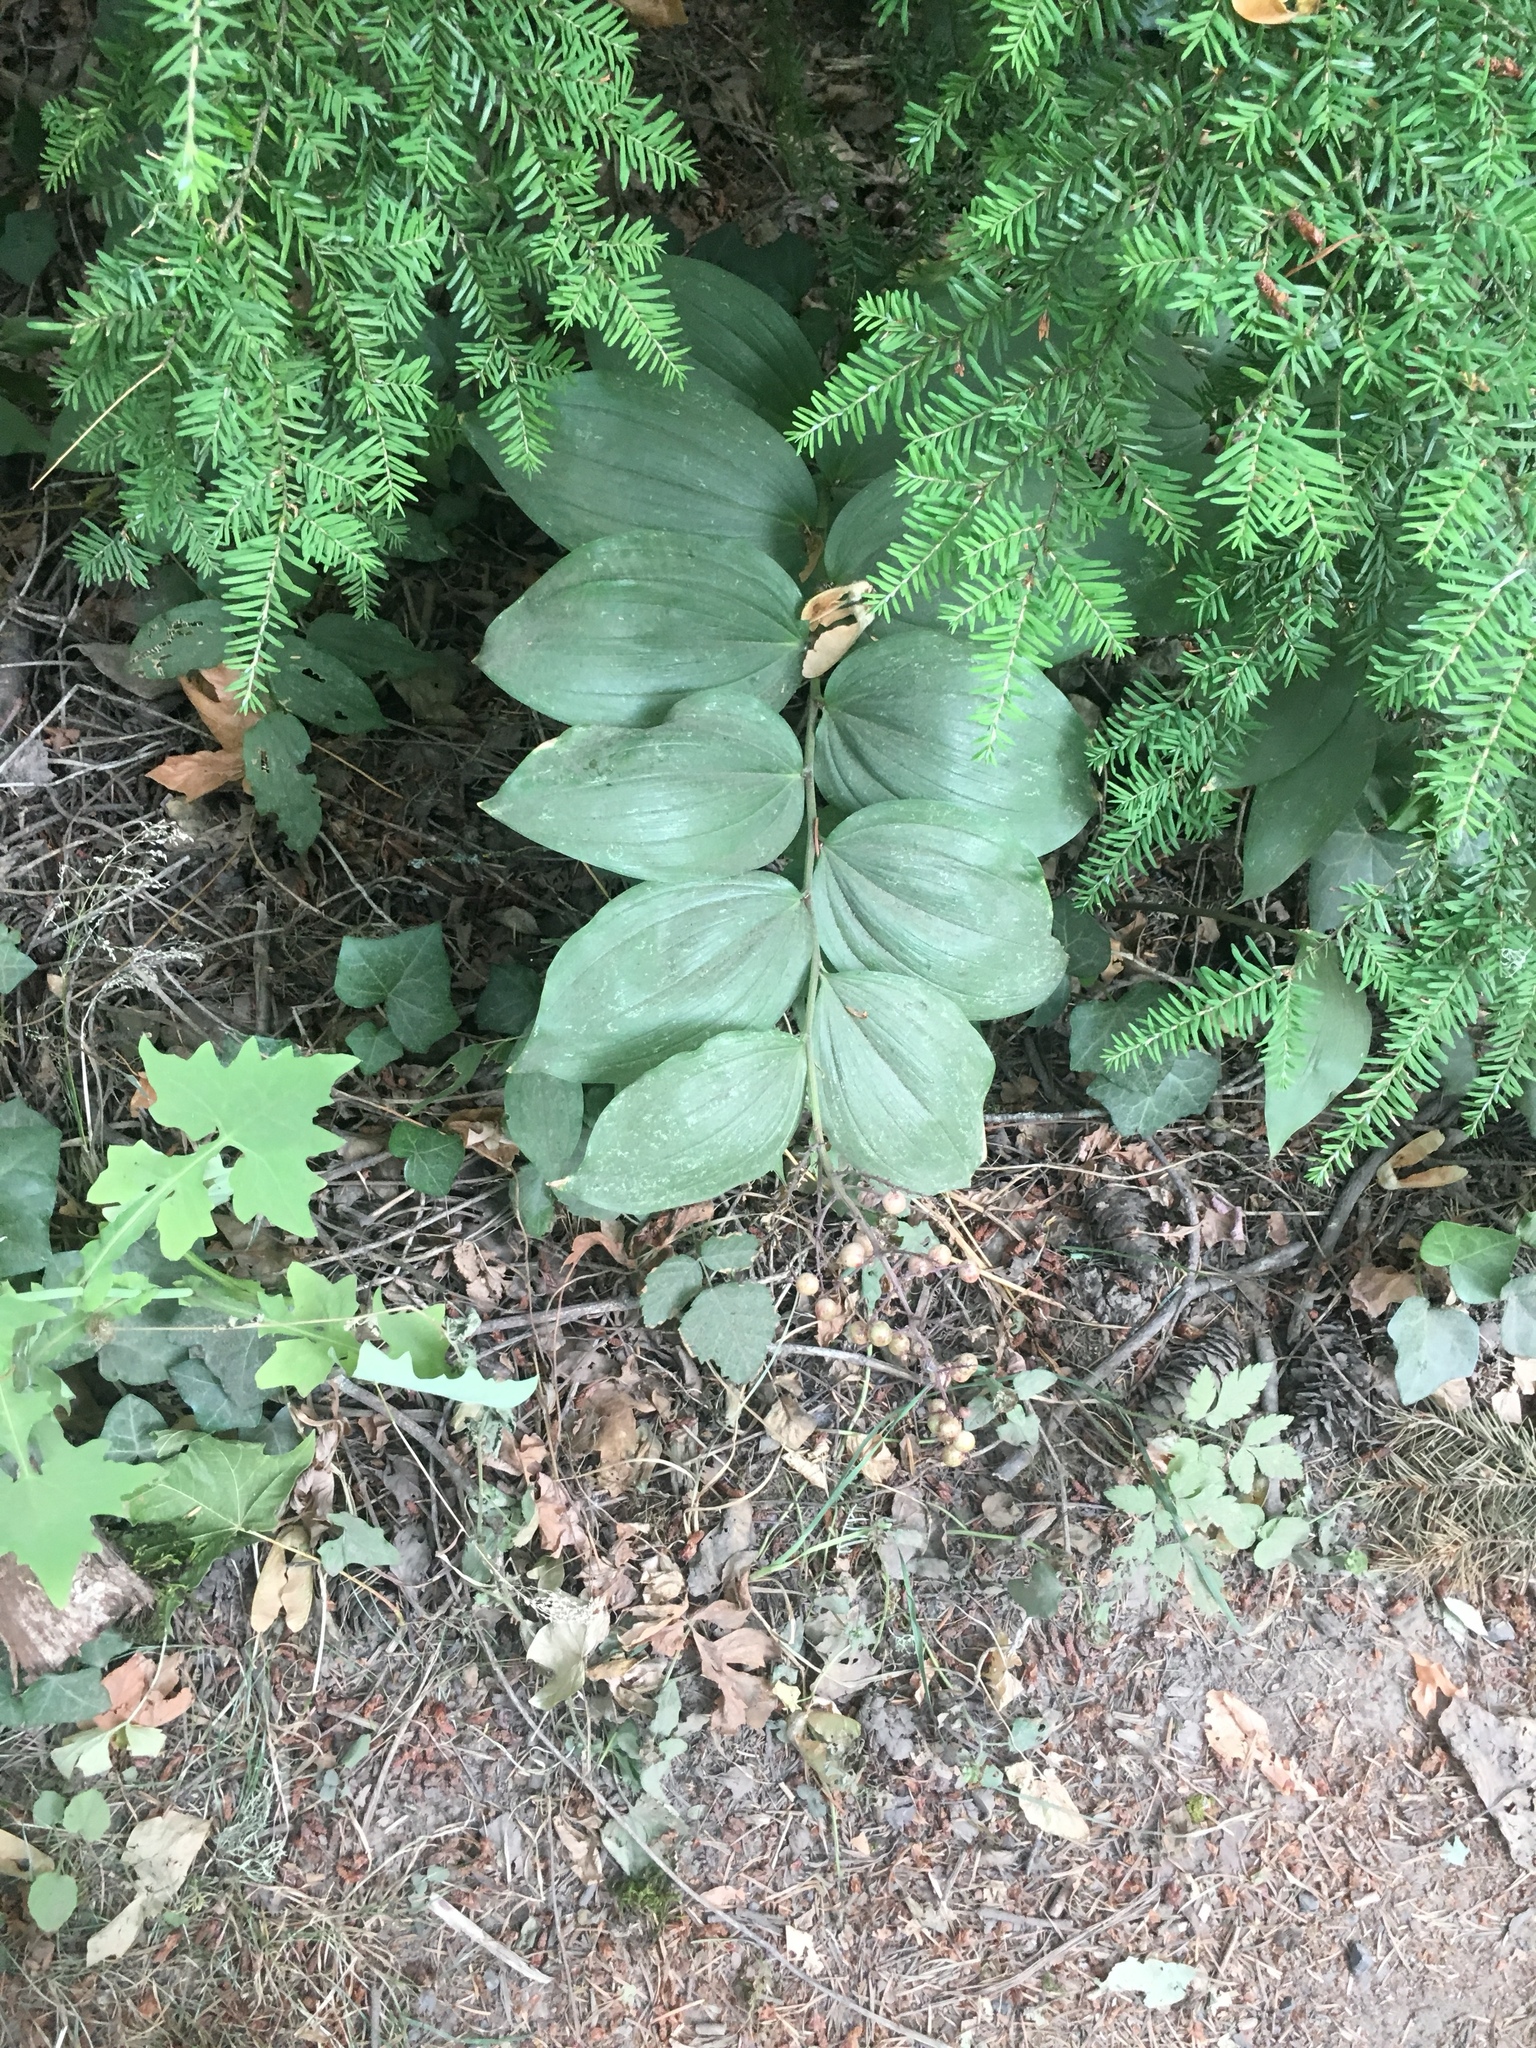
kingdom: Plantae
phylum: Tracheophyta
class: Liliopsida
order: Asparagales
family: Asparagaceae
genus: Maianthemum
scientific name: Maianthemum racemosum
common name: False spikenard
